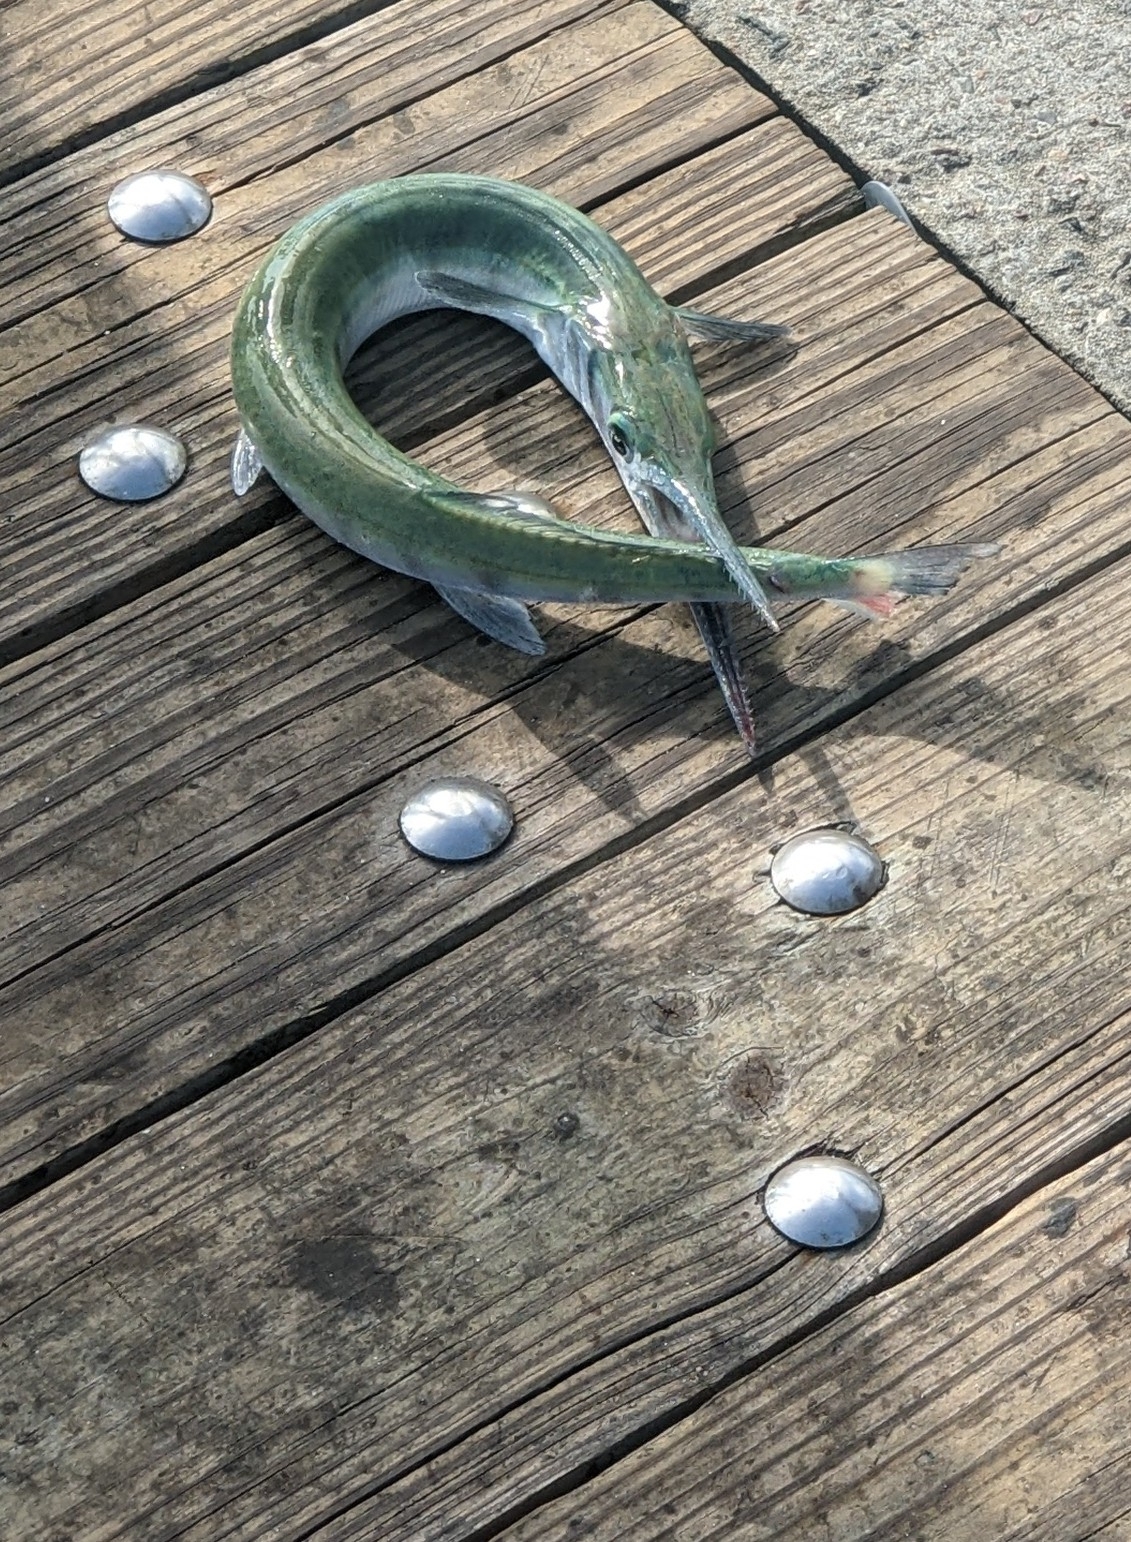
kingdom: Animalia
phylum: Chordata
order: Beloniformes
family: Belonidae
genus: Tylosurus
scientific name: Tylosurus crocodilus
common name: Houndfish
